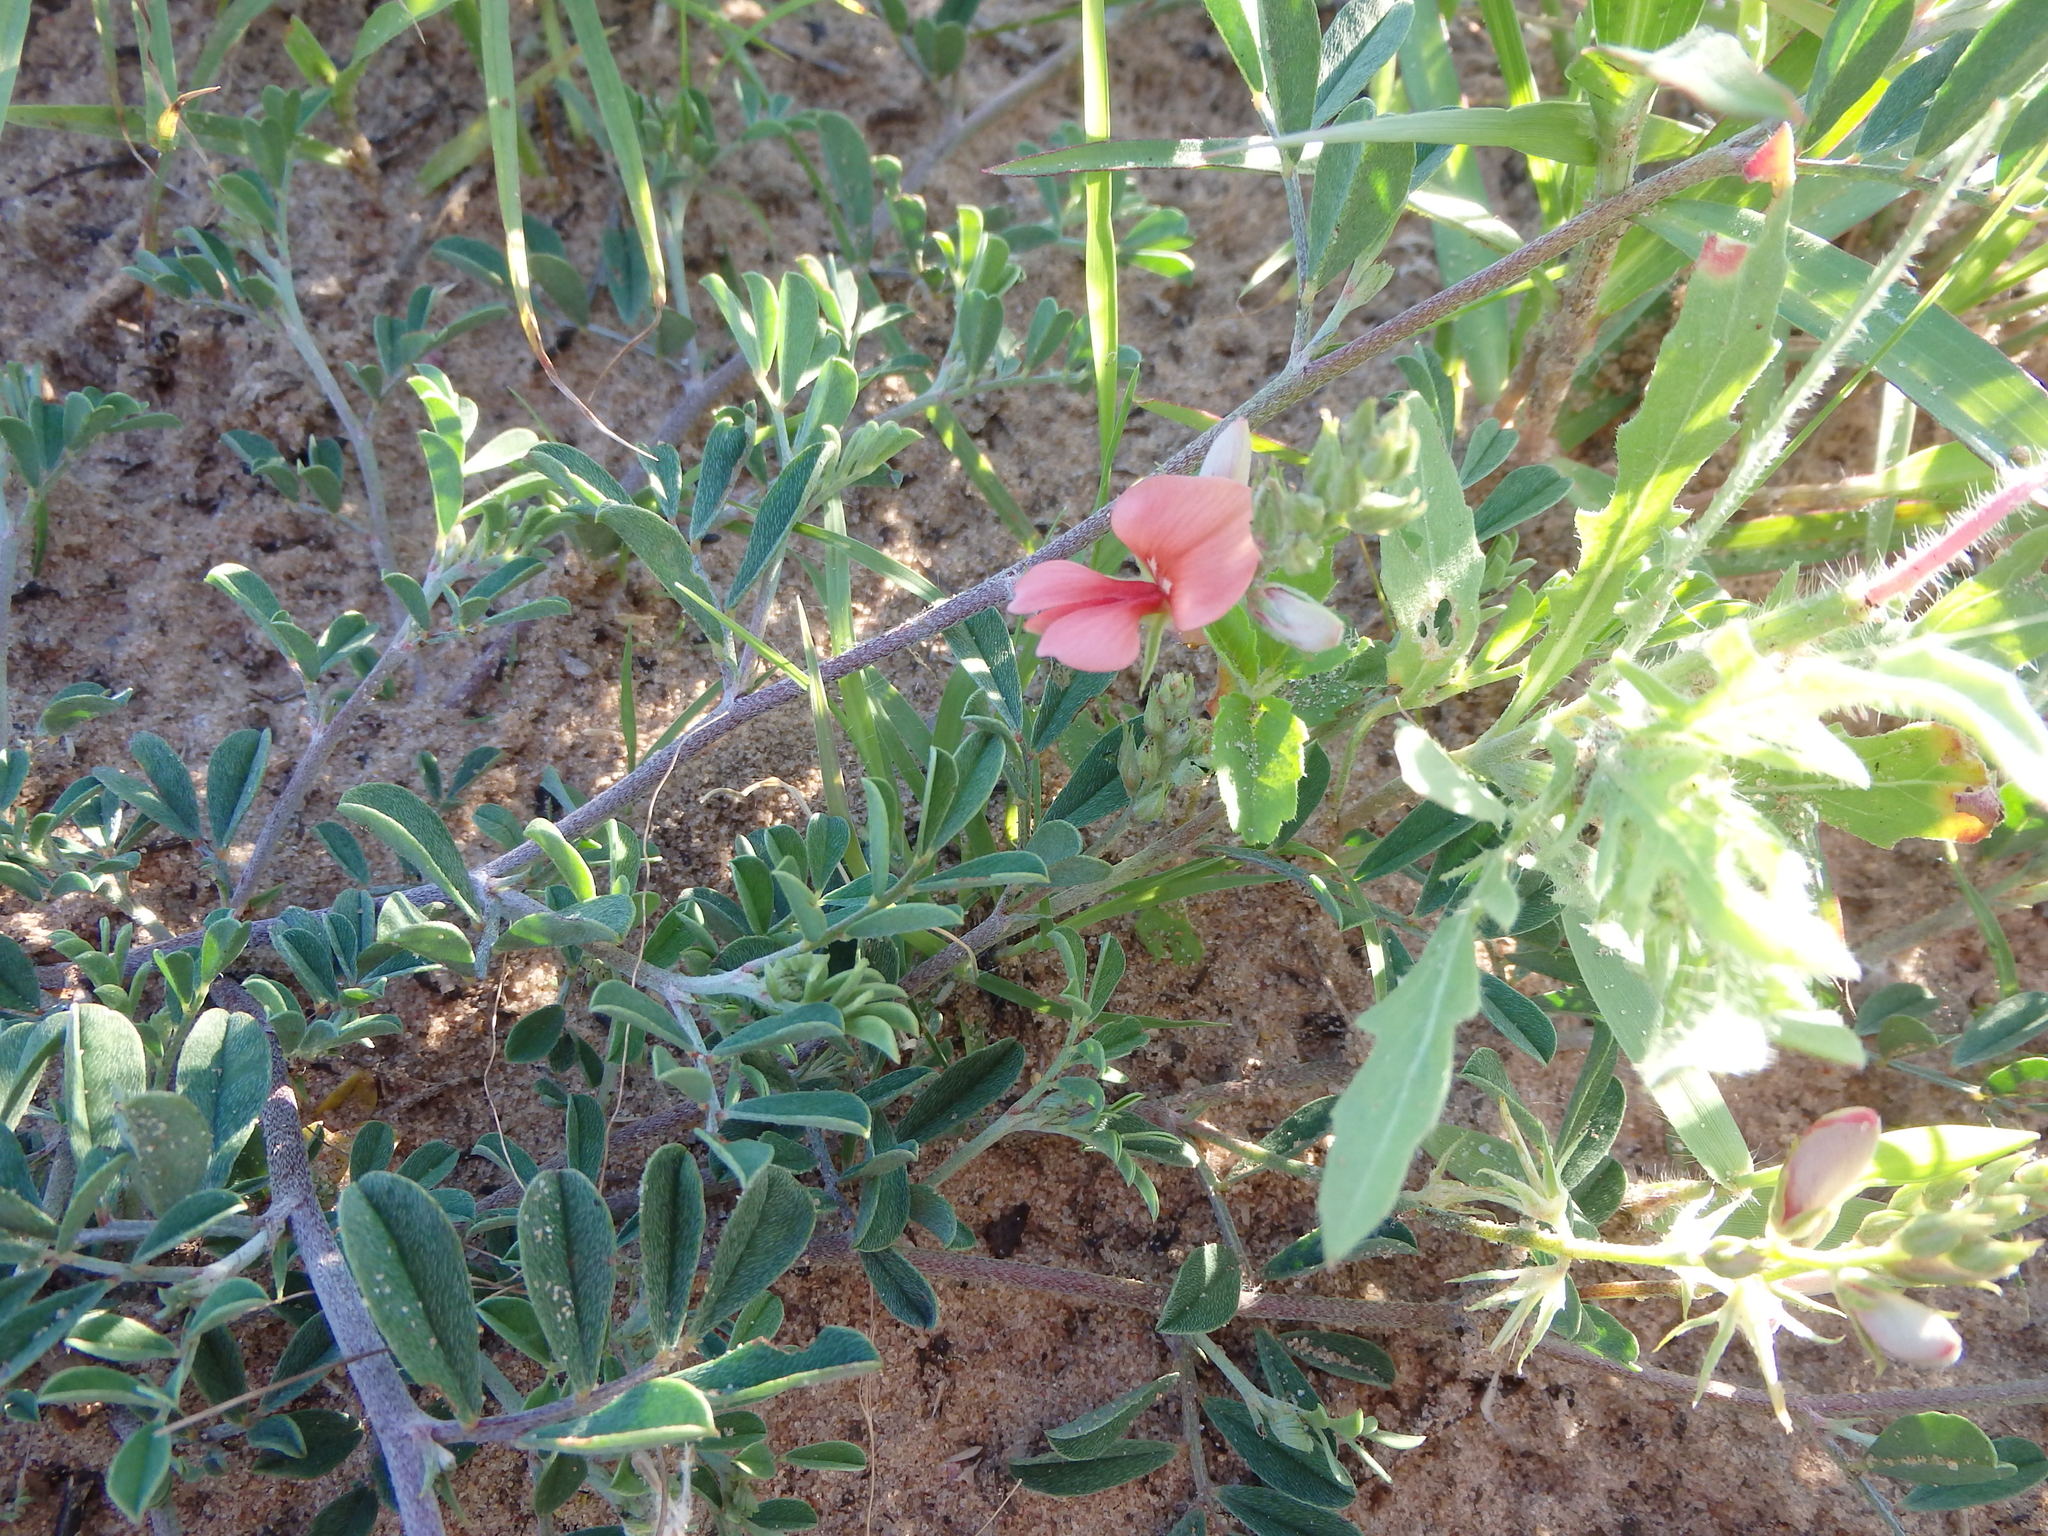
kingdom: Plantae
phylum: Tracheophyta
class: Magnoliopsida
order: Fabales
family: Fabaceae
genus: Indigofera
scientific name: Indigofera miniata
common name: Coast indigo
